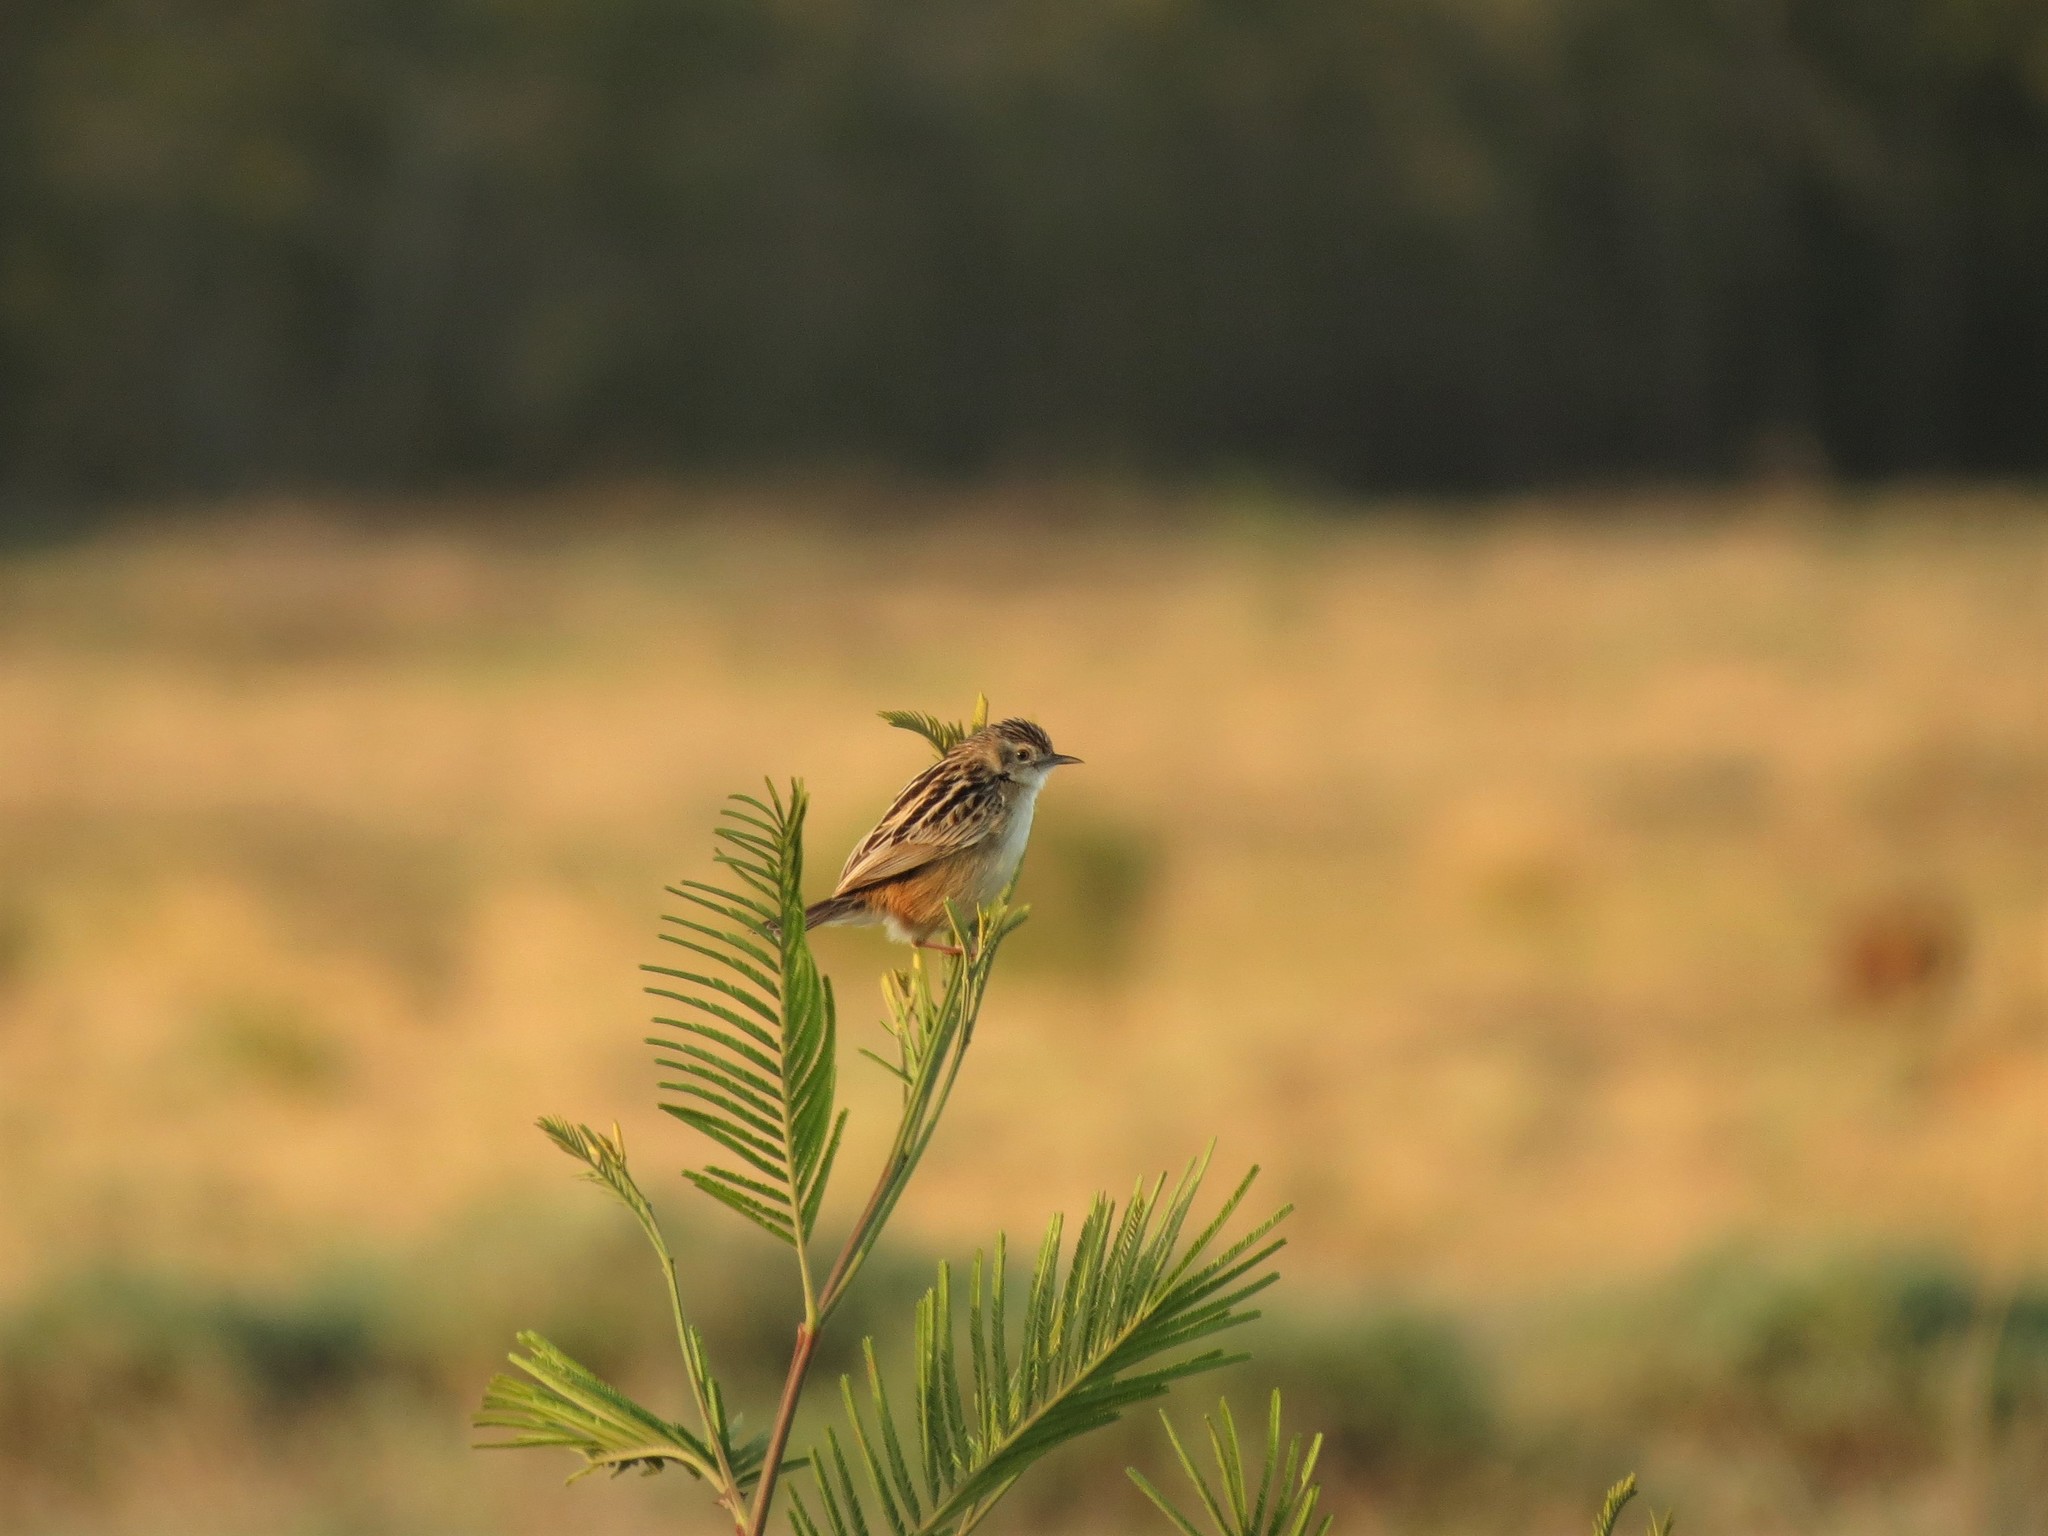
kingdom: Animalia
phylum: Chordata
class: Aves
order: Passeriformes
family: Cisticolidae
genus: Cisticola
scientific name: Cisticola juncidis
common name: Zitting cisticola
